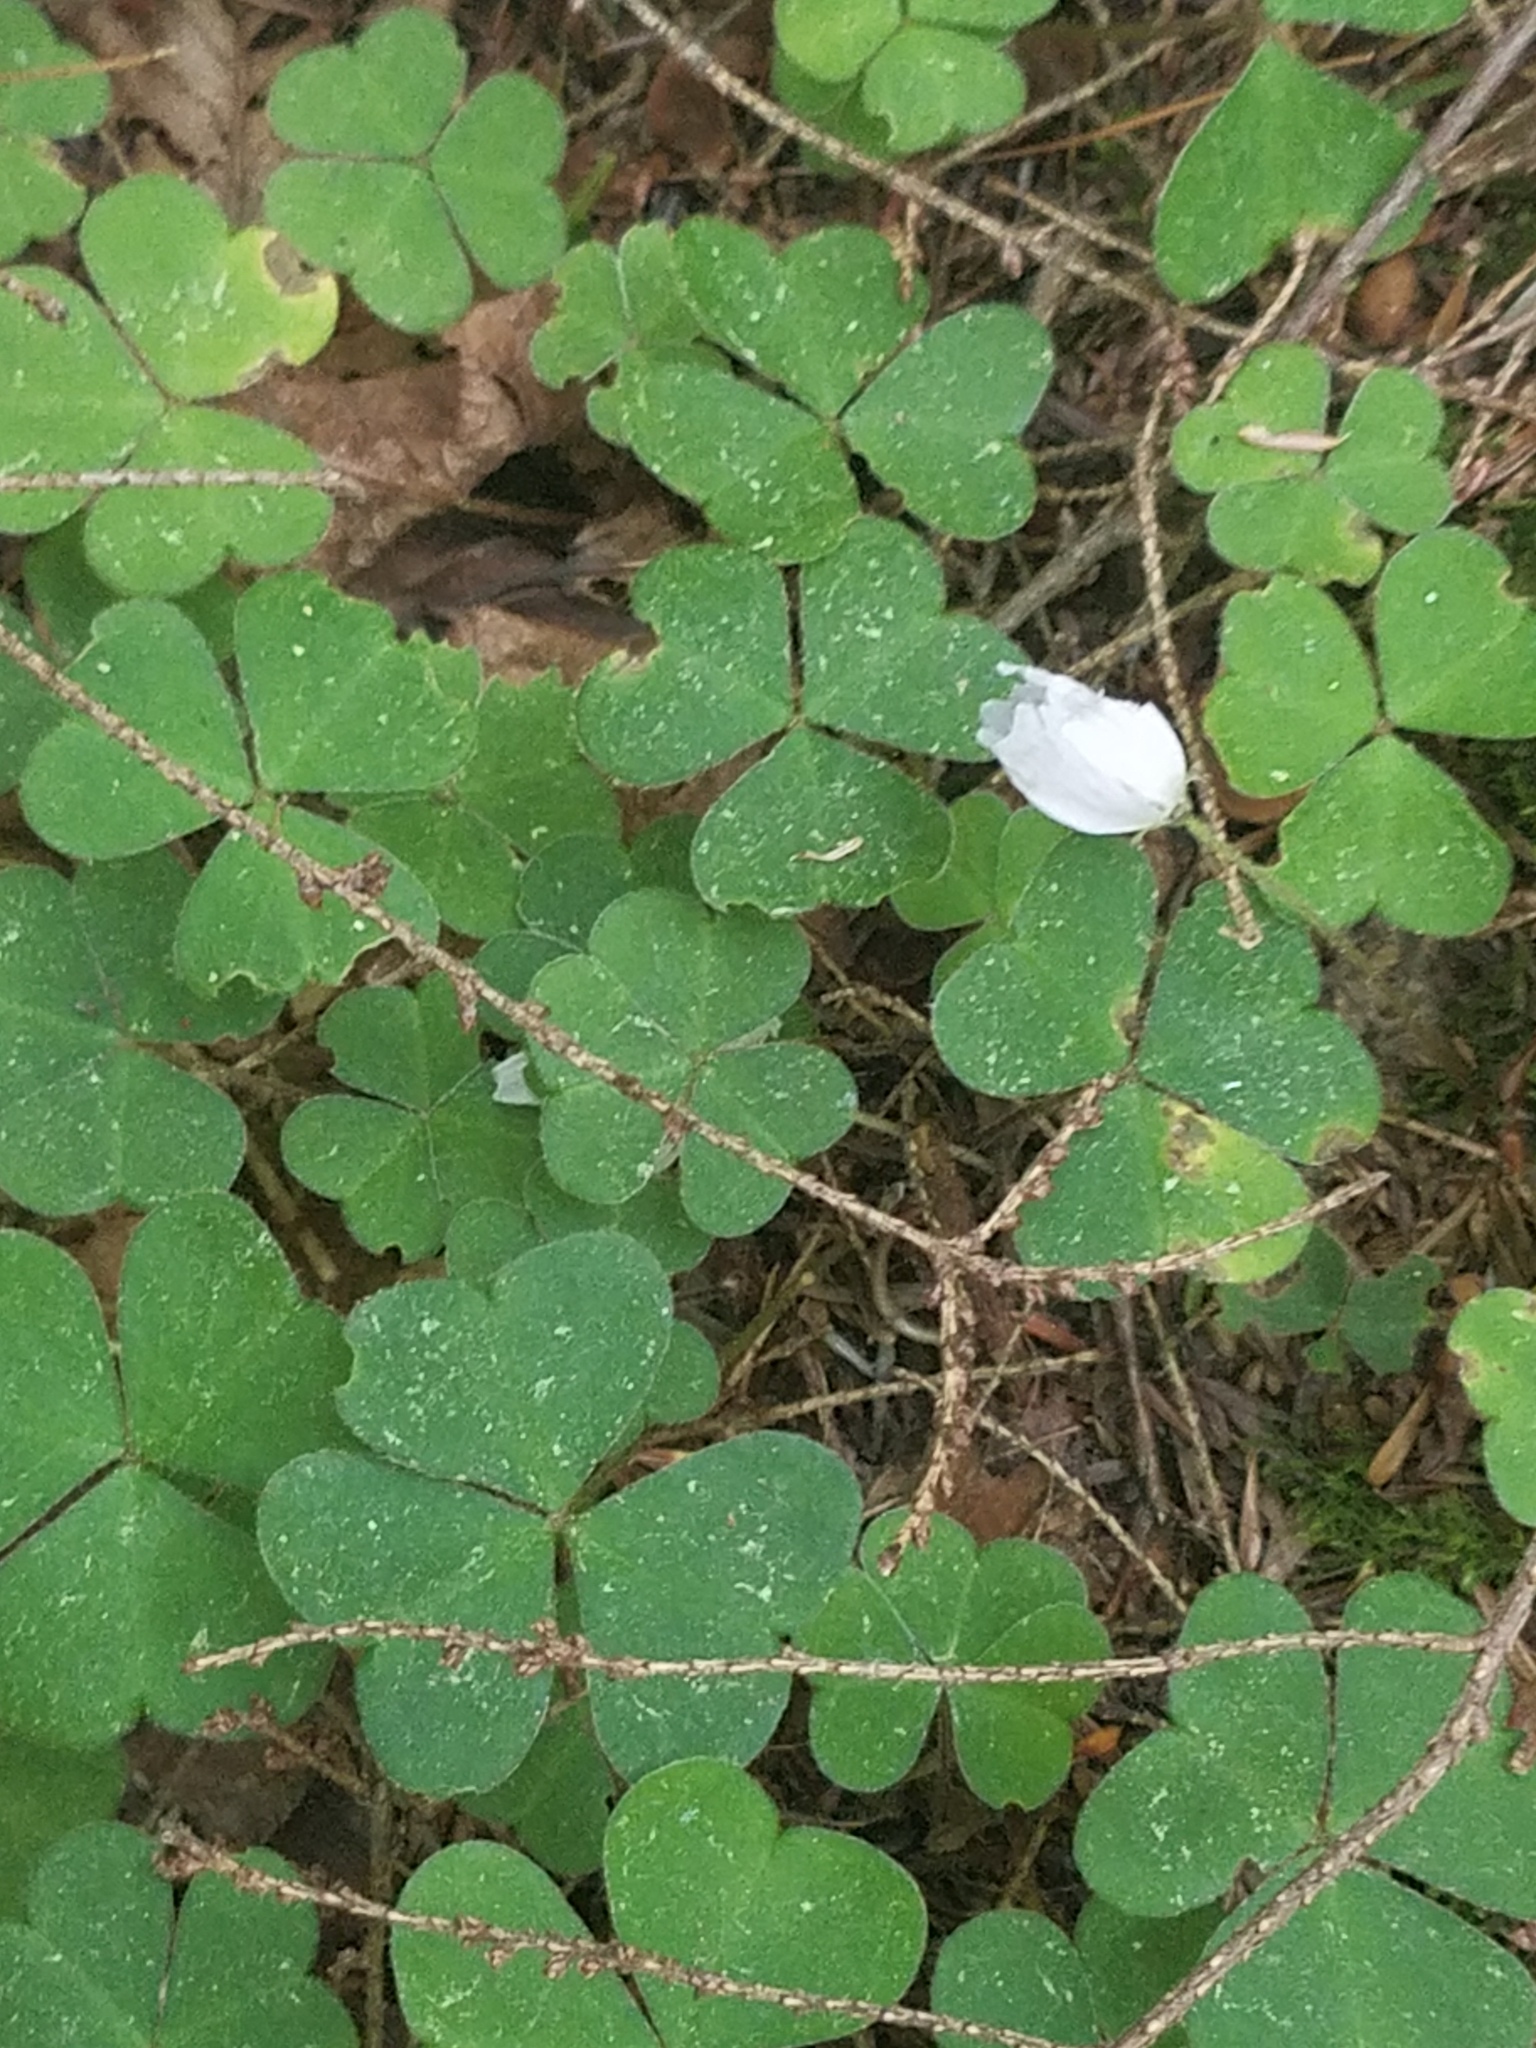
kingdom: Plantae
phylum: Tracheophyta
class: Magnoliopsida
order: Oxalidales
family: Oxalidaceae
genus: Oxalis
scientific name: Oxalis montana
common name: American wood-sorrel
